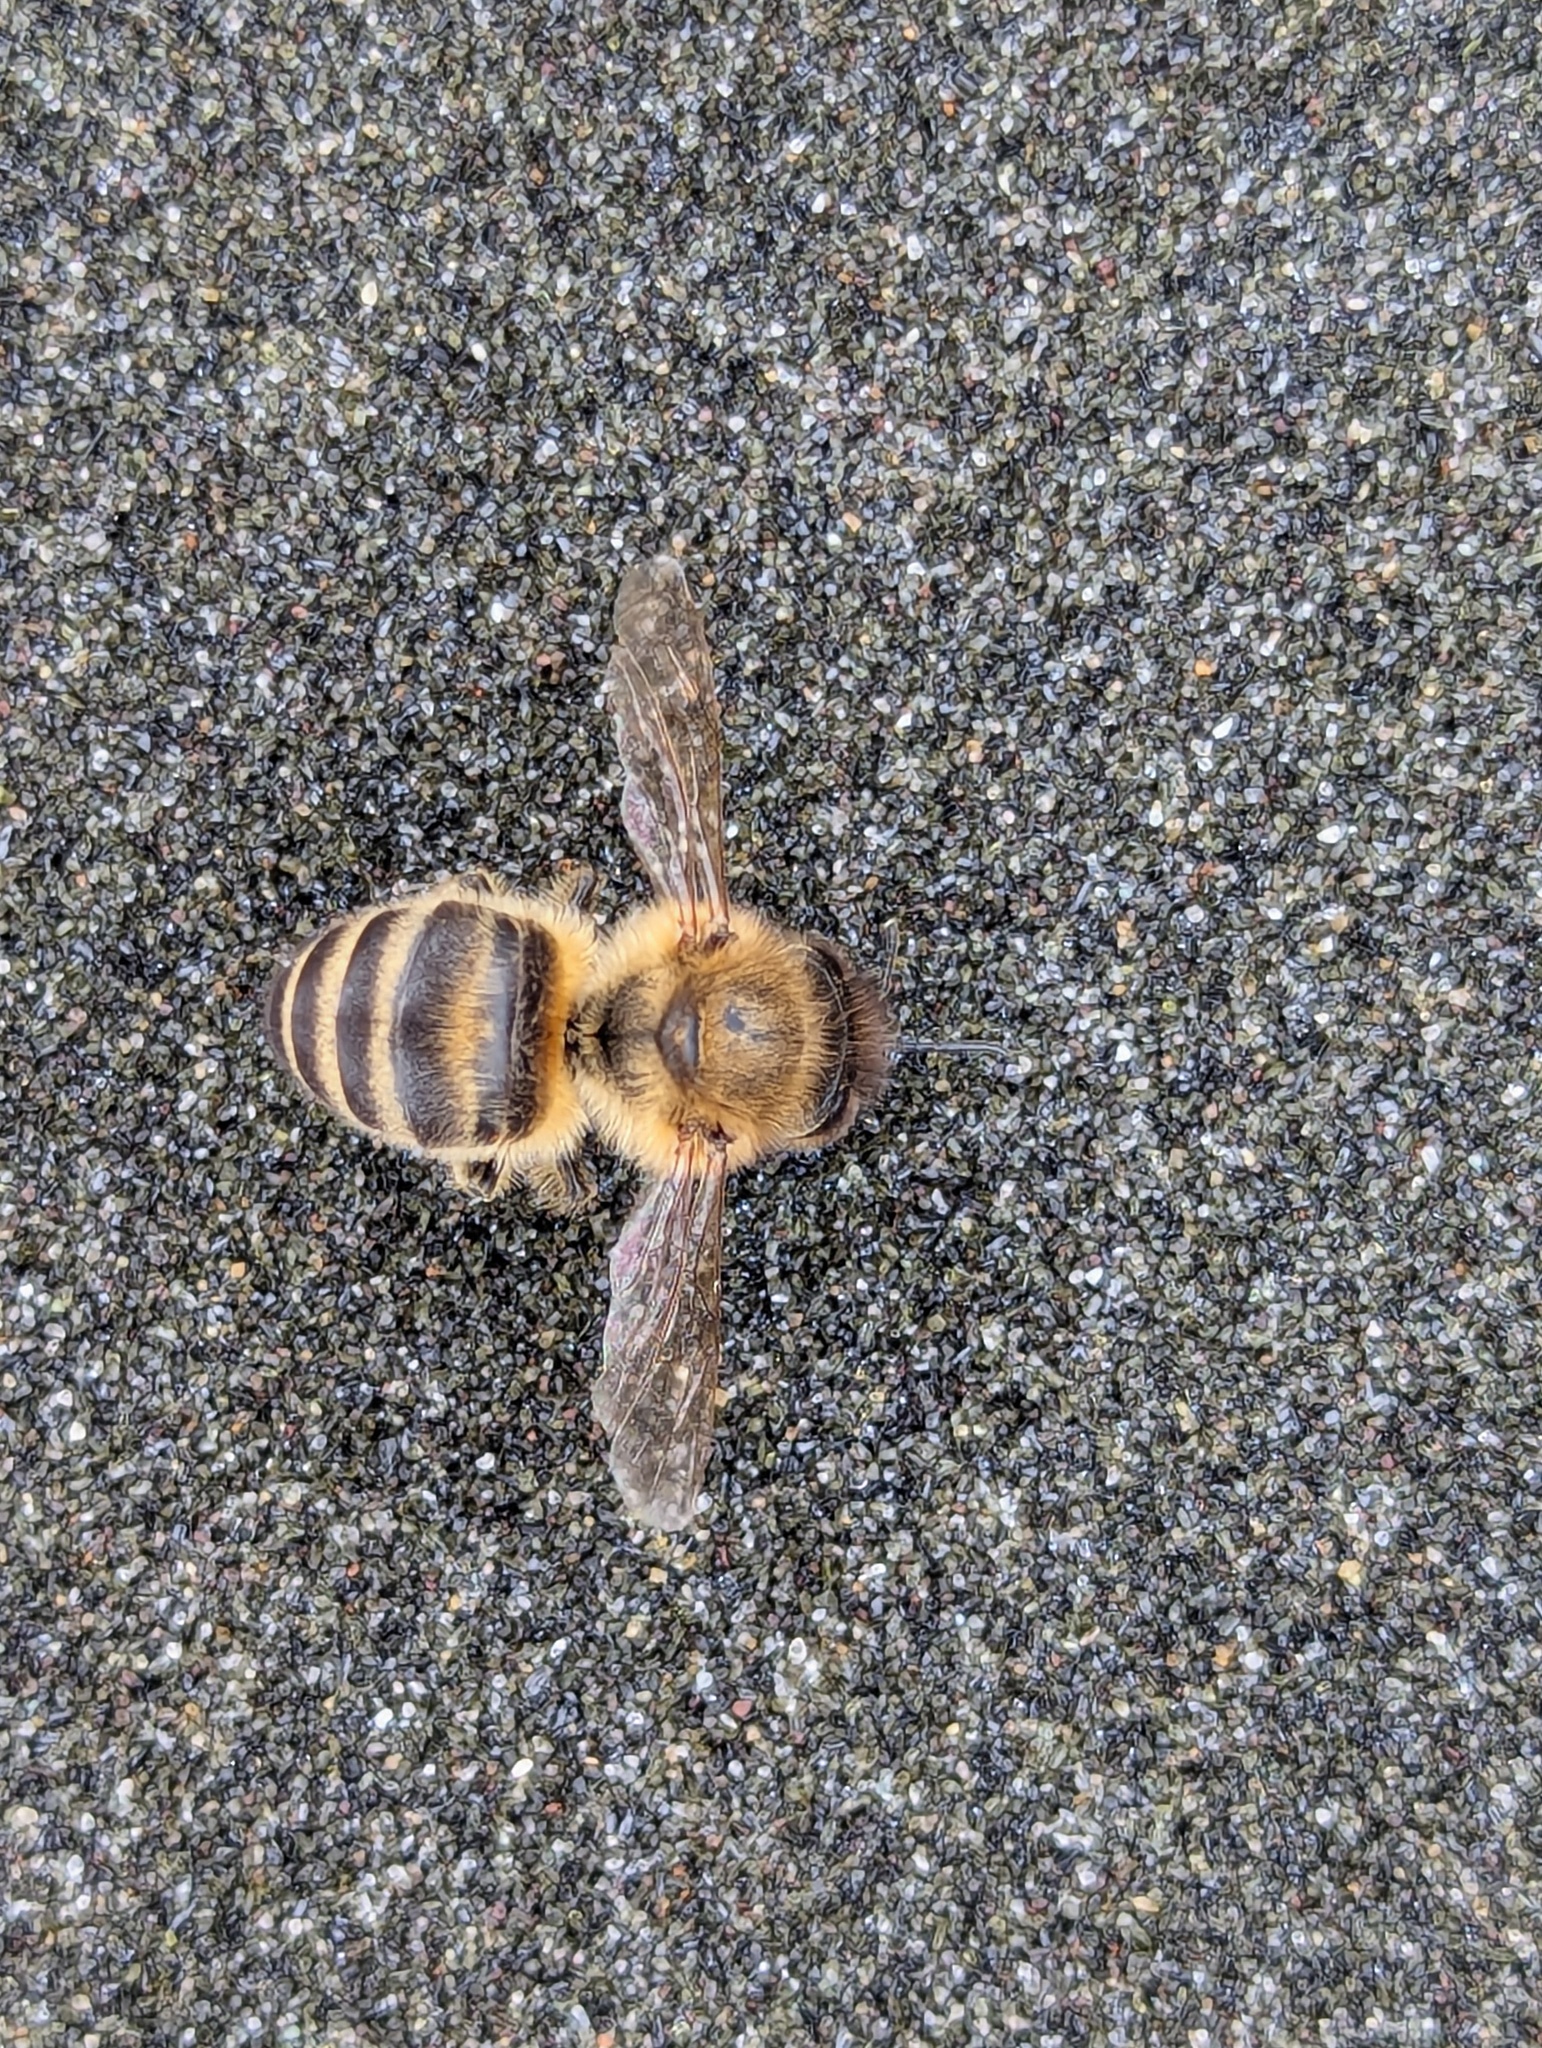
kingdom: Animalia
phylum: Arthropoda
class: Insecta
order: Hymenoptera
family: Apidae
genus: Apis
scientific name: Apis mellifera
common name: Honey bee
